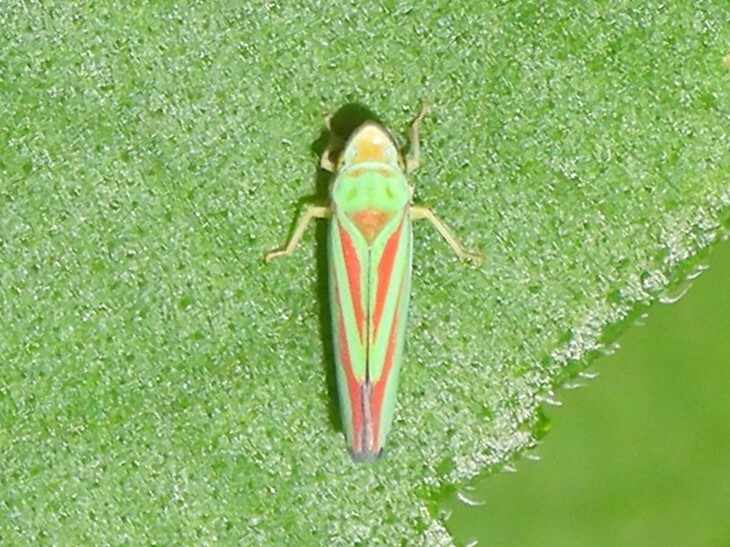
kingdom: Animalia
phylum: Arthropoda
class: Insecta
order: Hemiptera
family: Cicadellidae
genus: Graphocephala
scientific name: Graphocephala fennahi
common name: Rhododendron leafhopper
